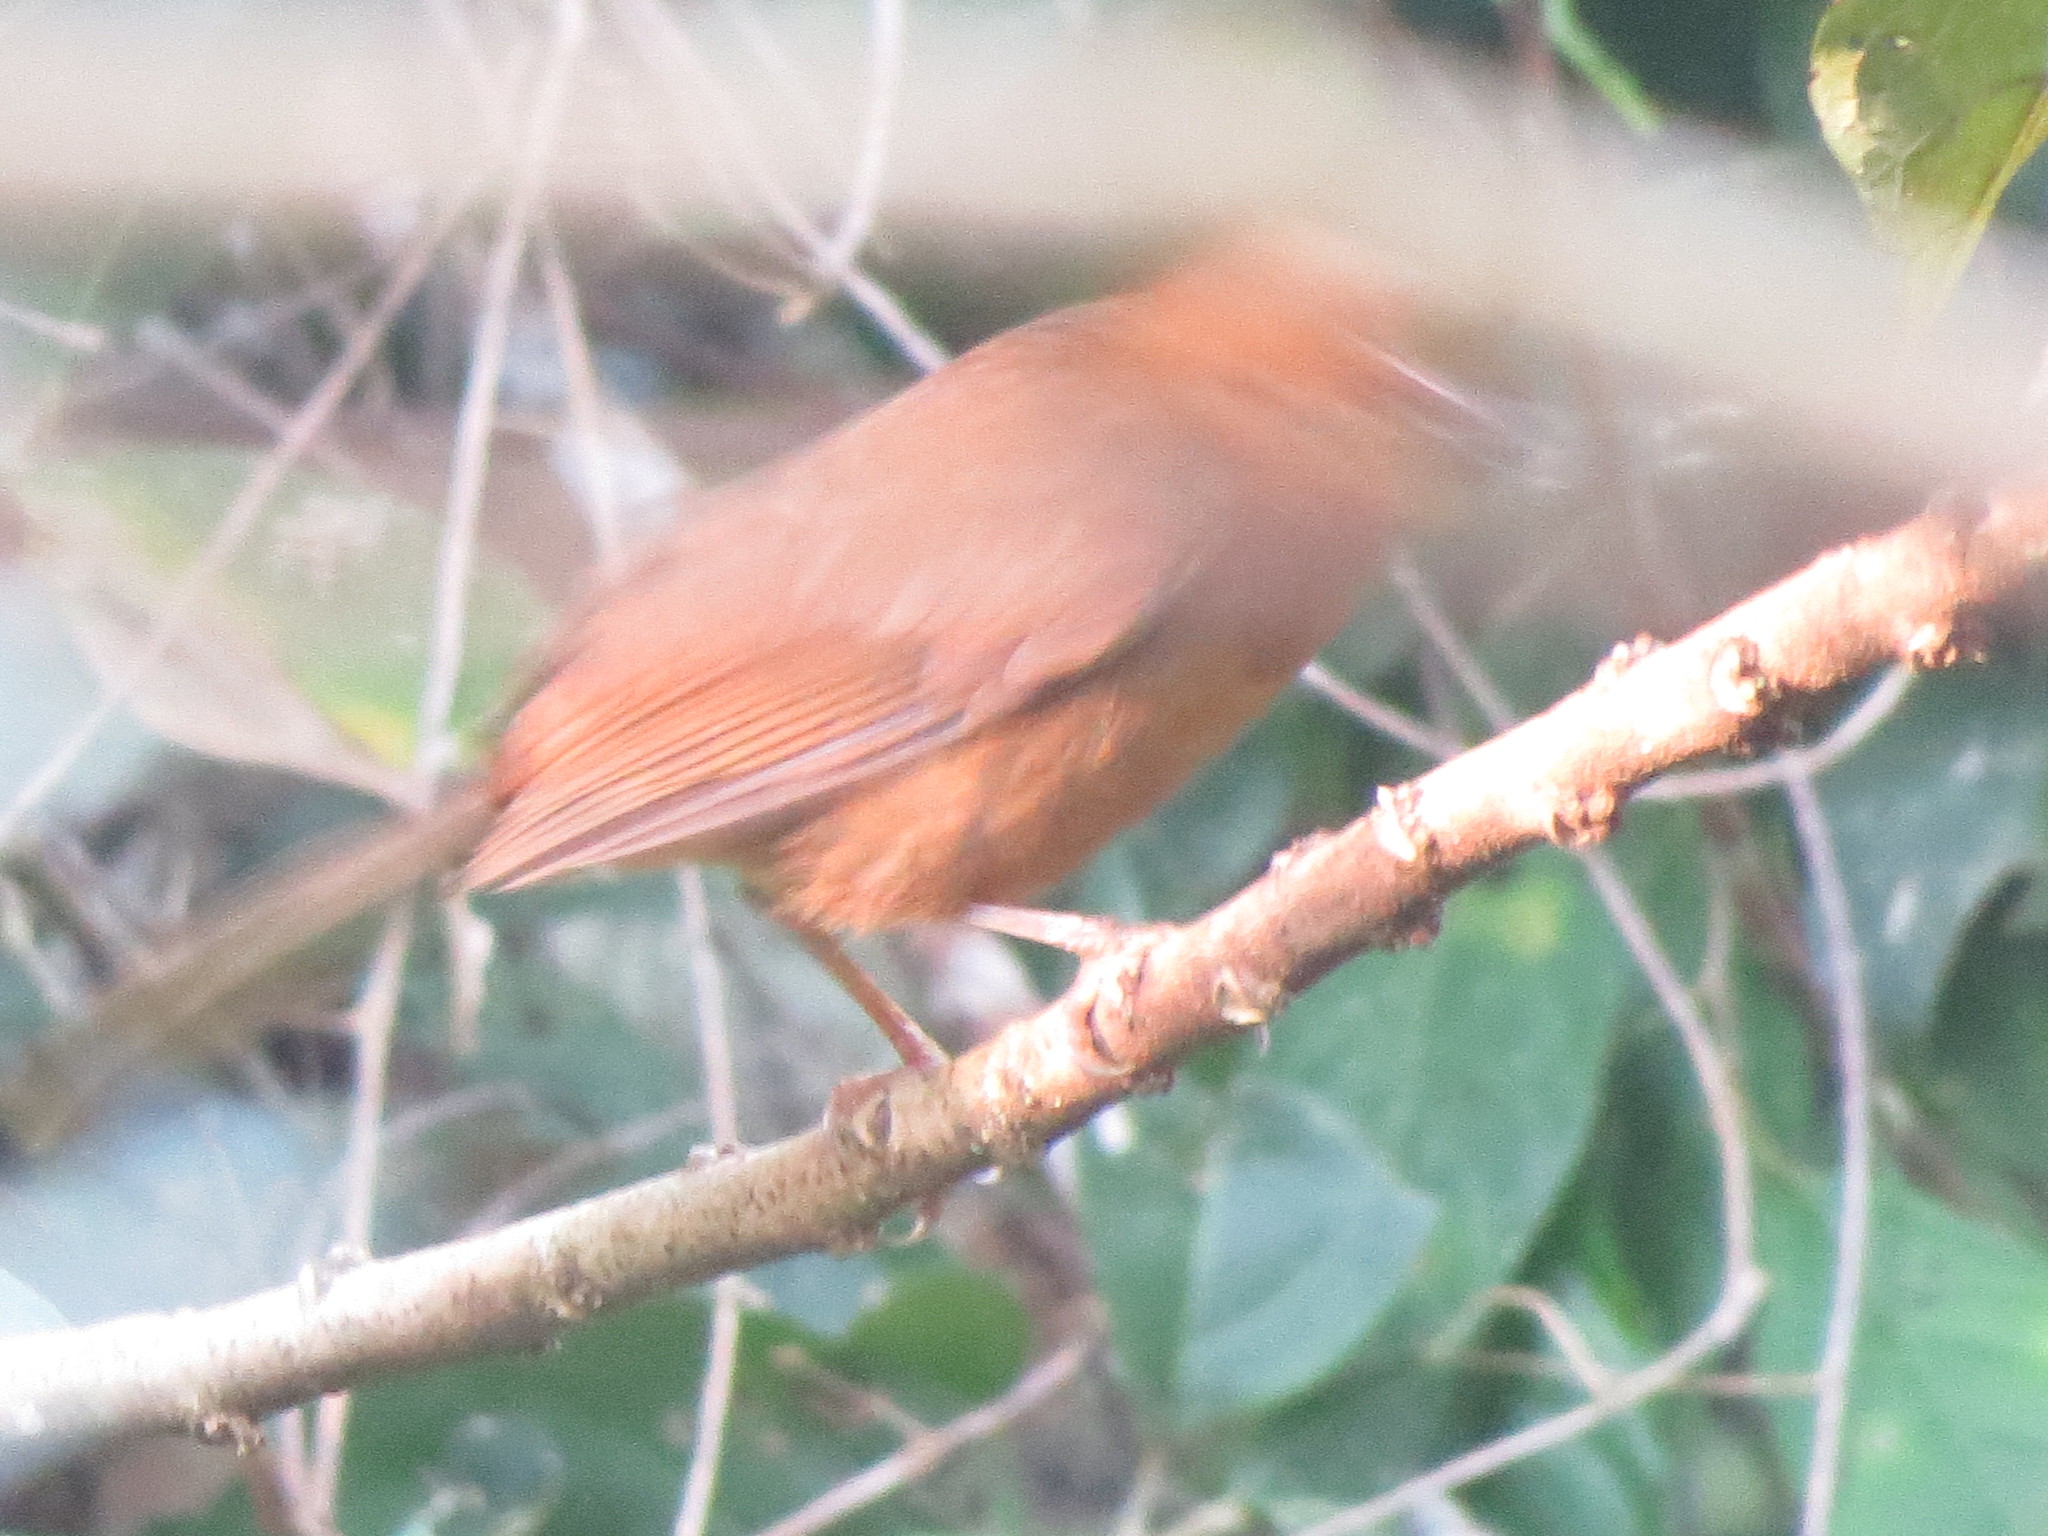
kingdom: Animalia
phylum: Chordata
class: Aves
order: Passeriformes
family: Cardinalidae
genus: Habia
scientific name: Habia fuscicauda
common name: Red-throated ant-tanager
